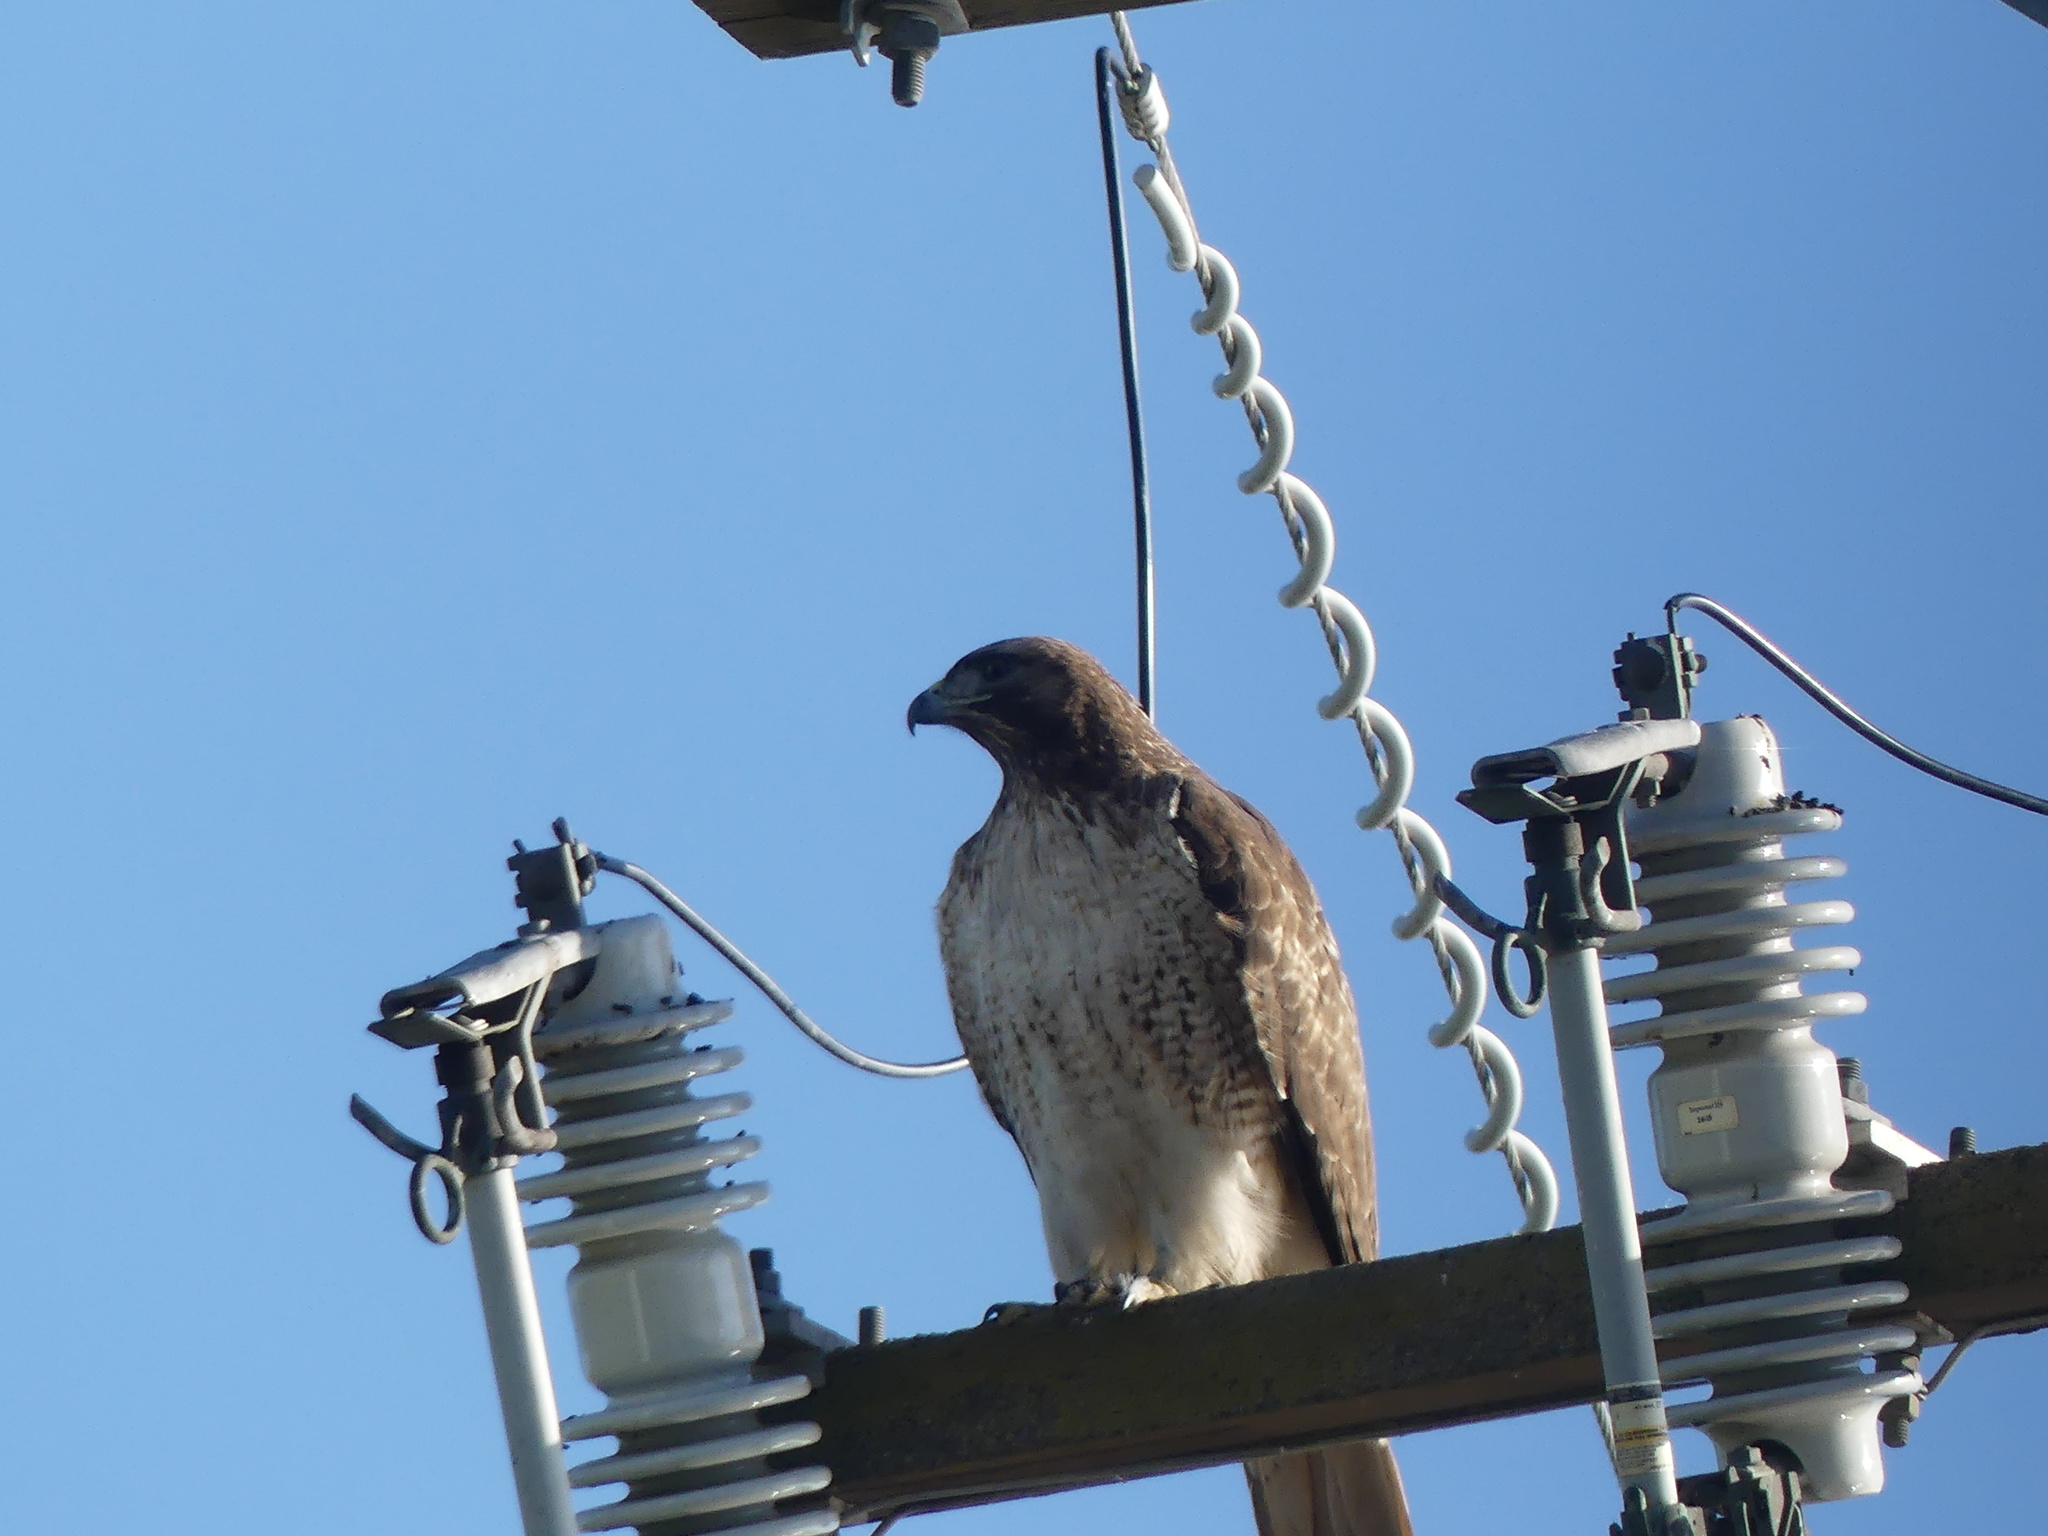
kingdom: Animalia
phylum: Chordata
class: Aves
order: Accipitriformes
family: Accipitridae
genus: Buteo
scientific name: Buteo jamaicensis
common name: Red-tailed hawk
